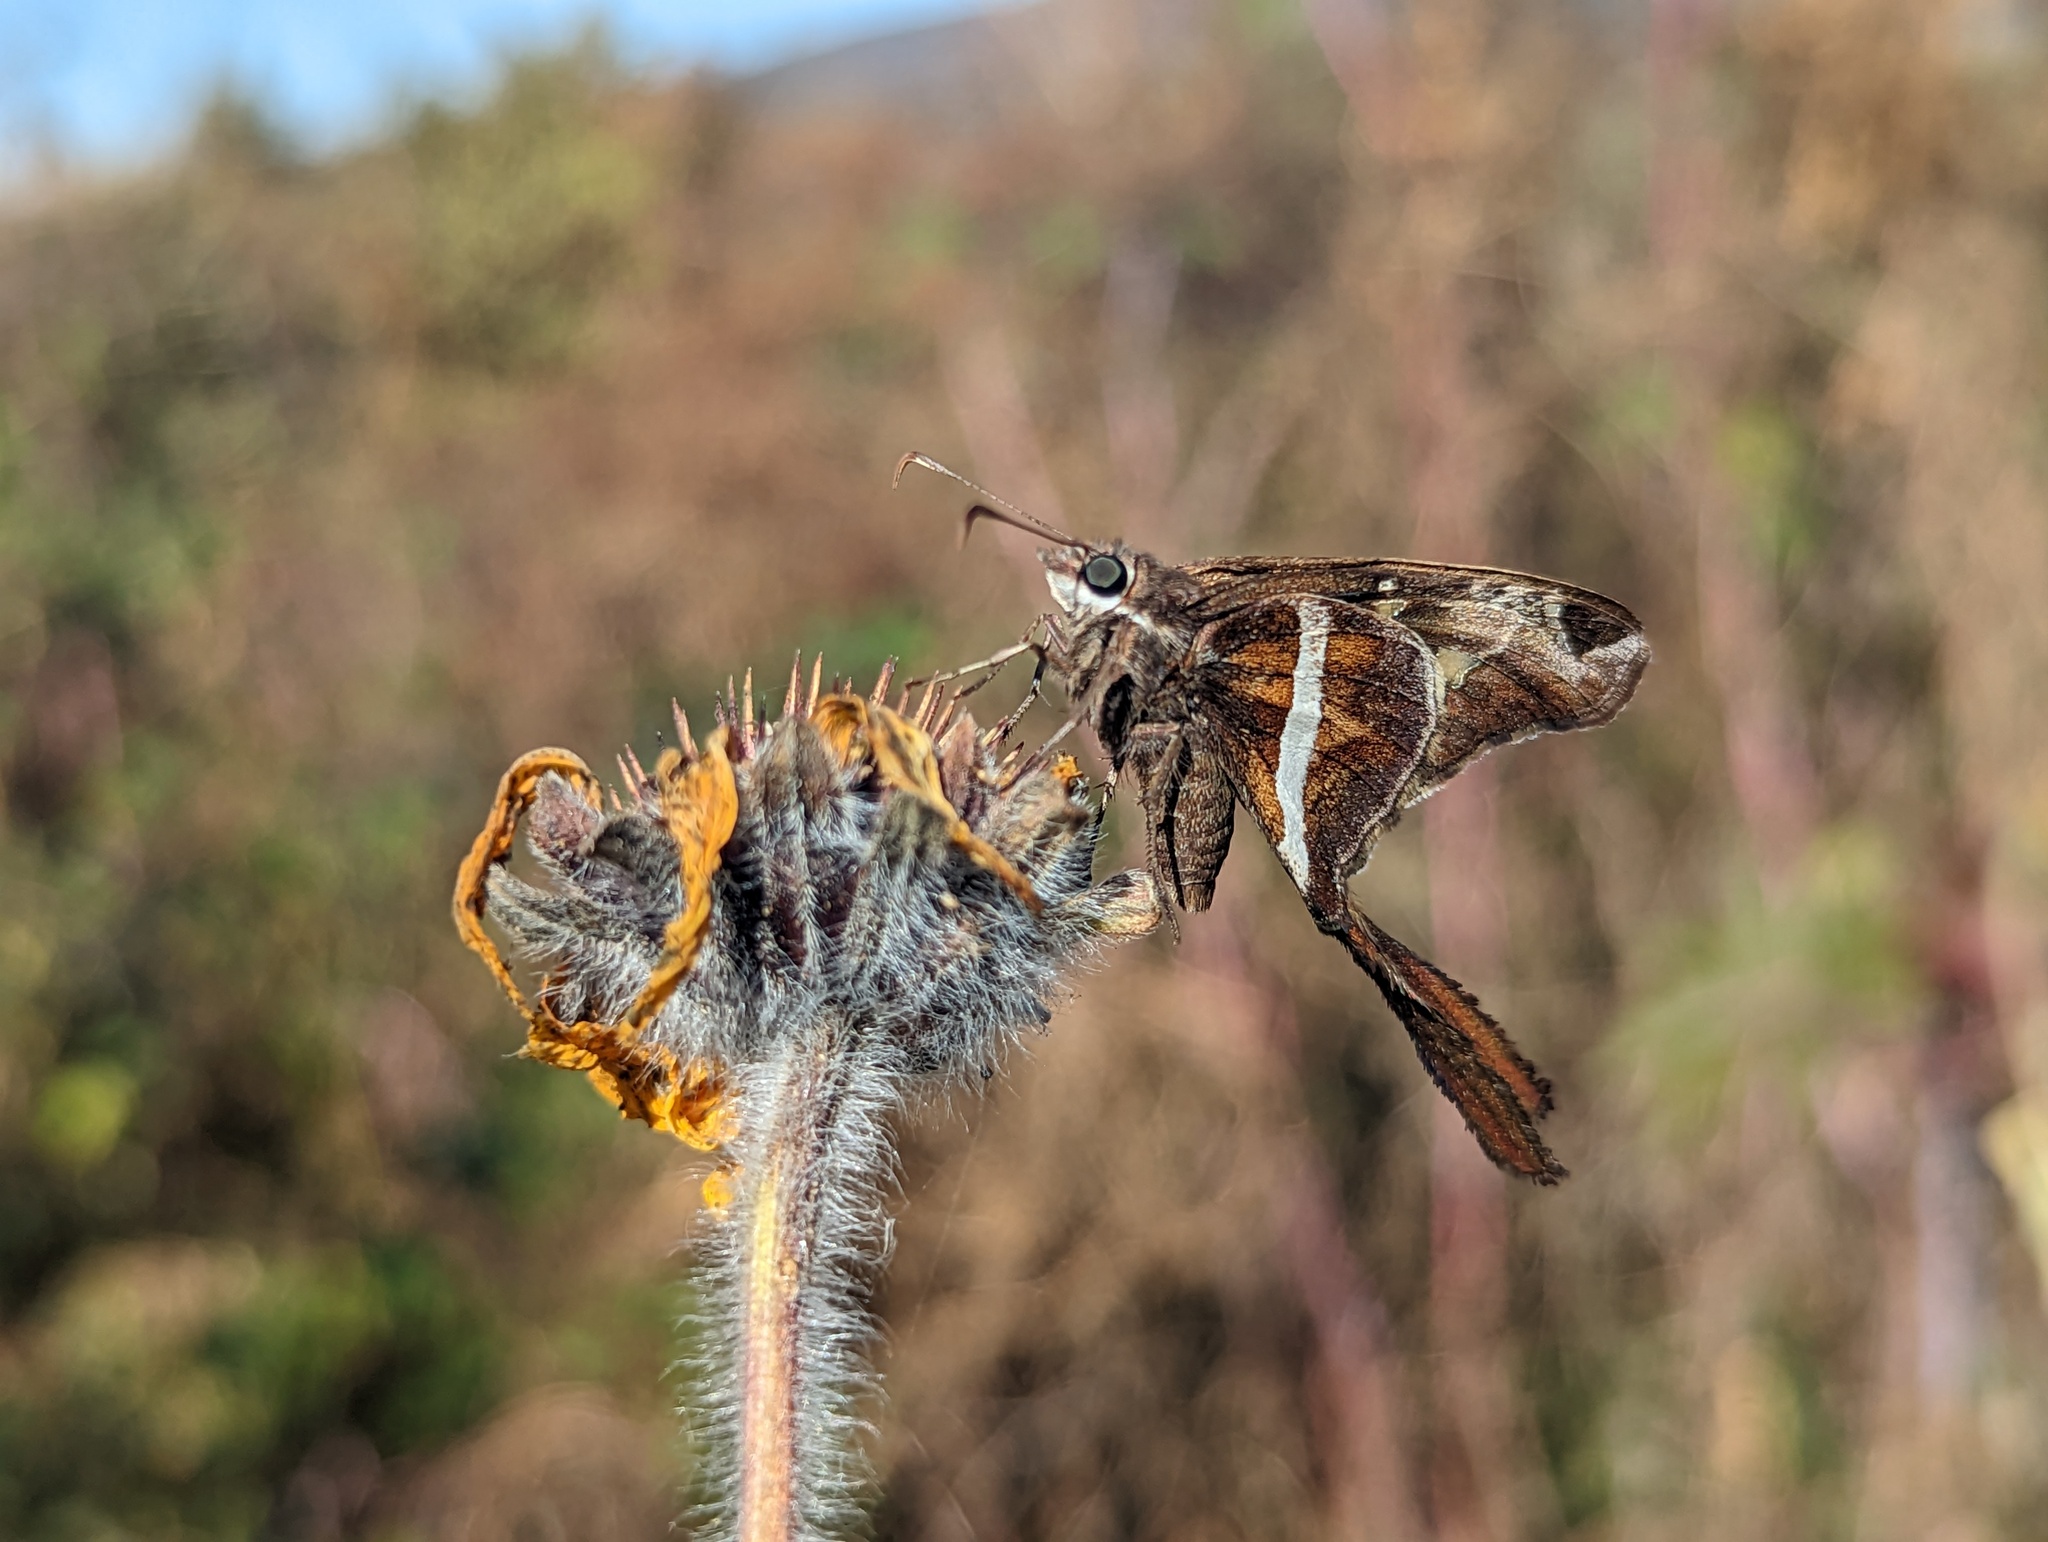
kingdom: Animalia
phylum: Arthropoda
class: Insecta
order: Lepidoptera
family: Hesperiidae
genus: Chioides
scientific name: Chioides catillus
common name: Silverbanded skipper
